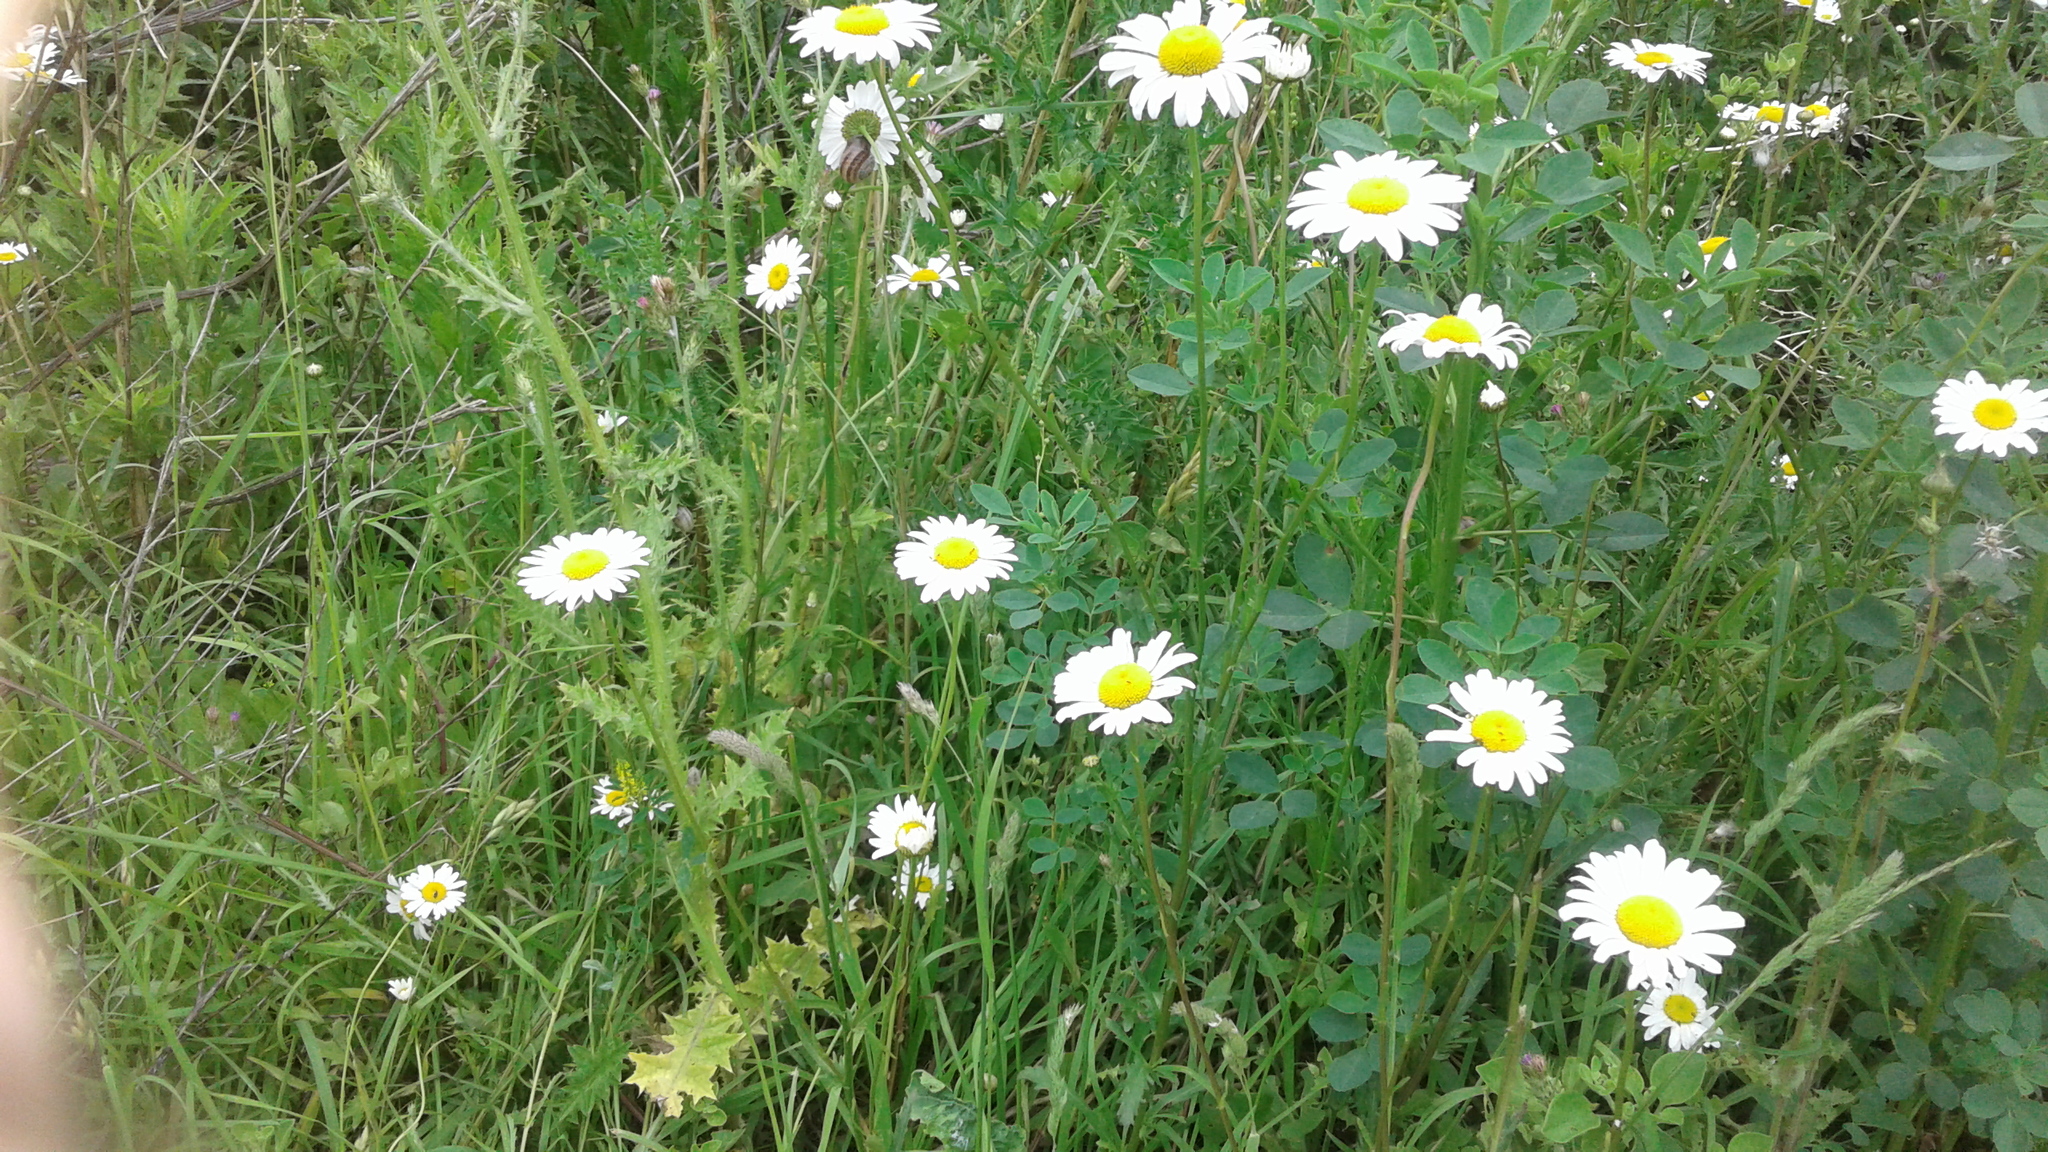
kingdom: Plantae
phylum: Tracheophyta
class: Magnoliopsida
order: Asterales
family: Asteraceae
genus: Leucanthemum
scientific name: Leucanthemum vulgare
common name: Oxeye daisy
